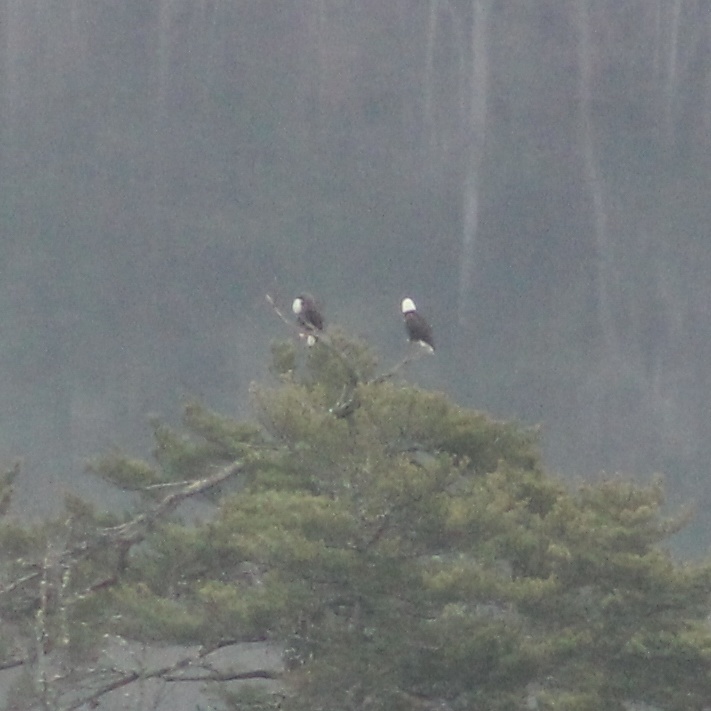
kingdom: Animalia
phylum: Chordata
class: Aves
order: Accipitriformes
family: Accipitridae
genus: Haliaeetus
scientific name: Haliaeetus leucocephalus
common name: Bald eagle
